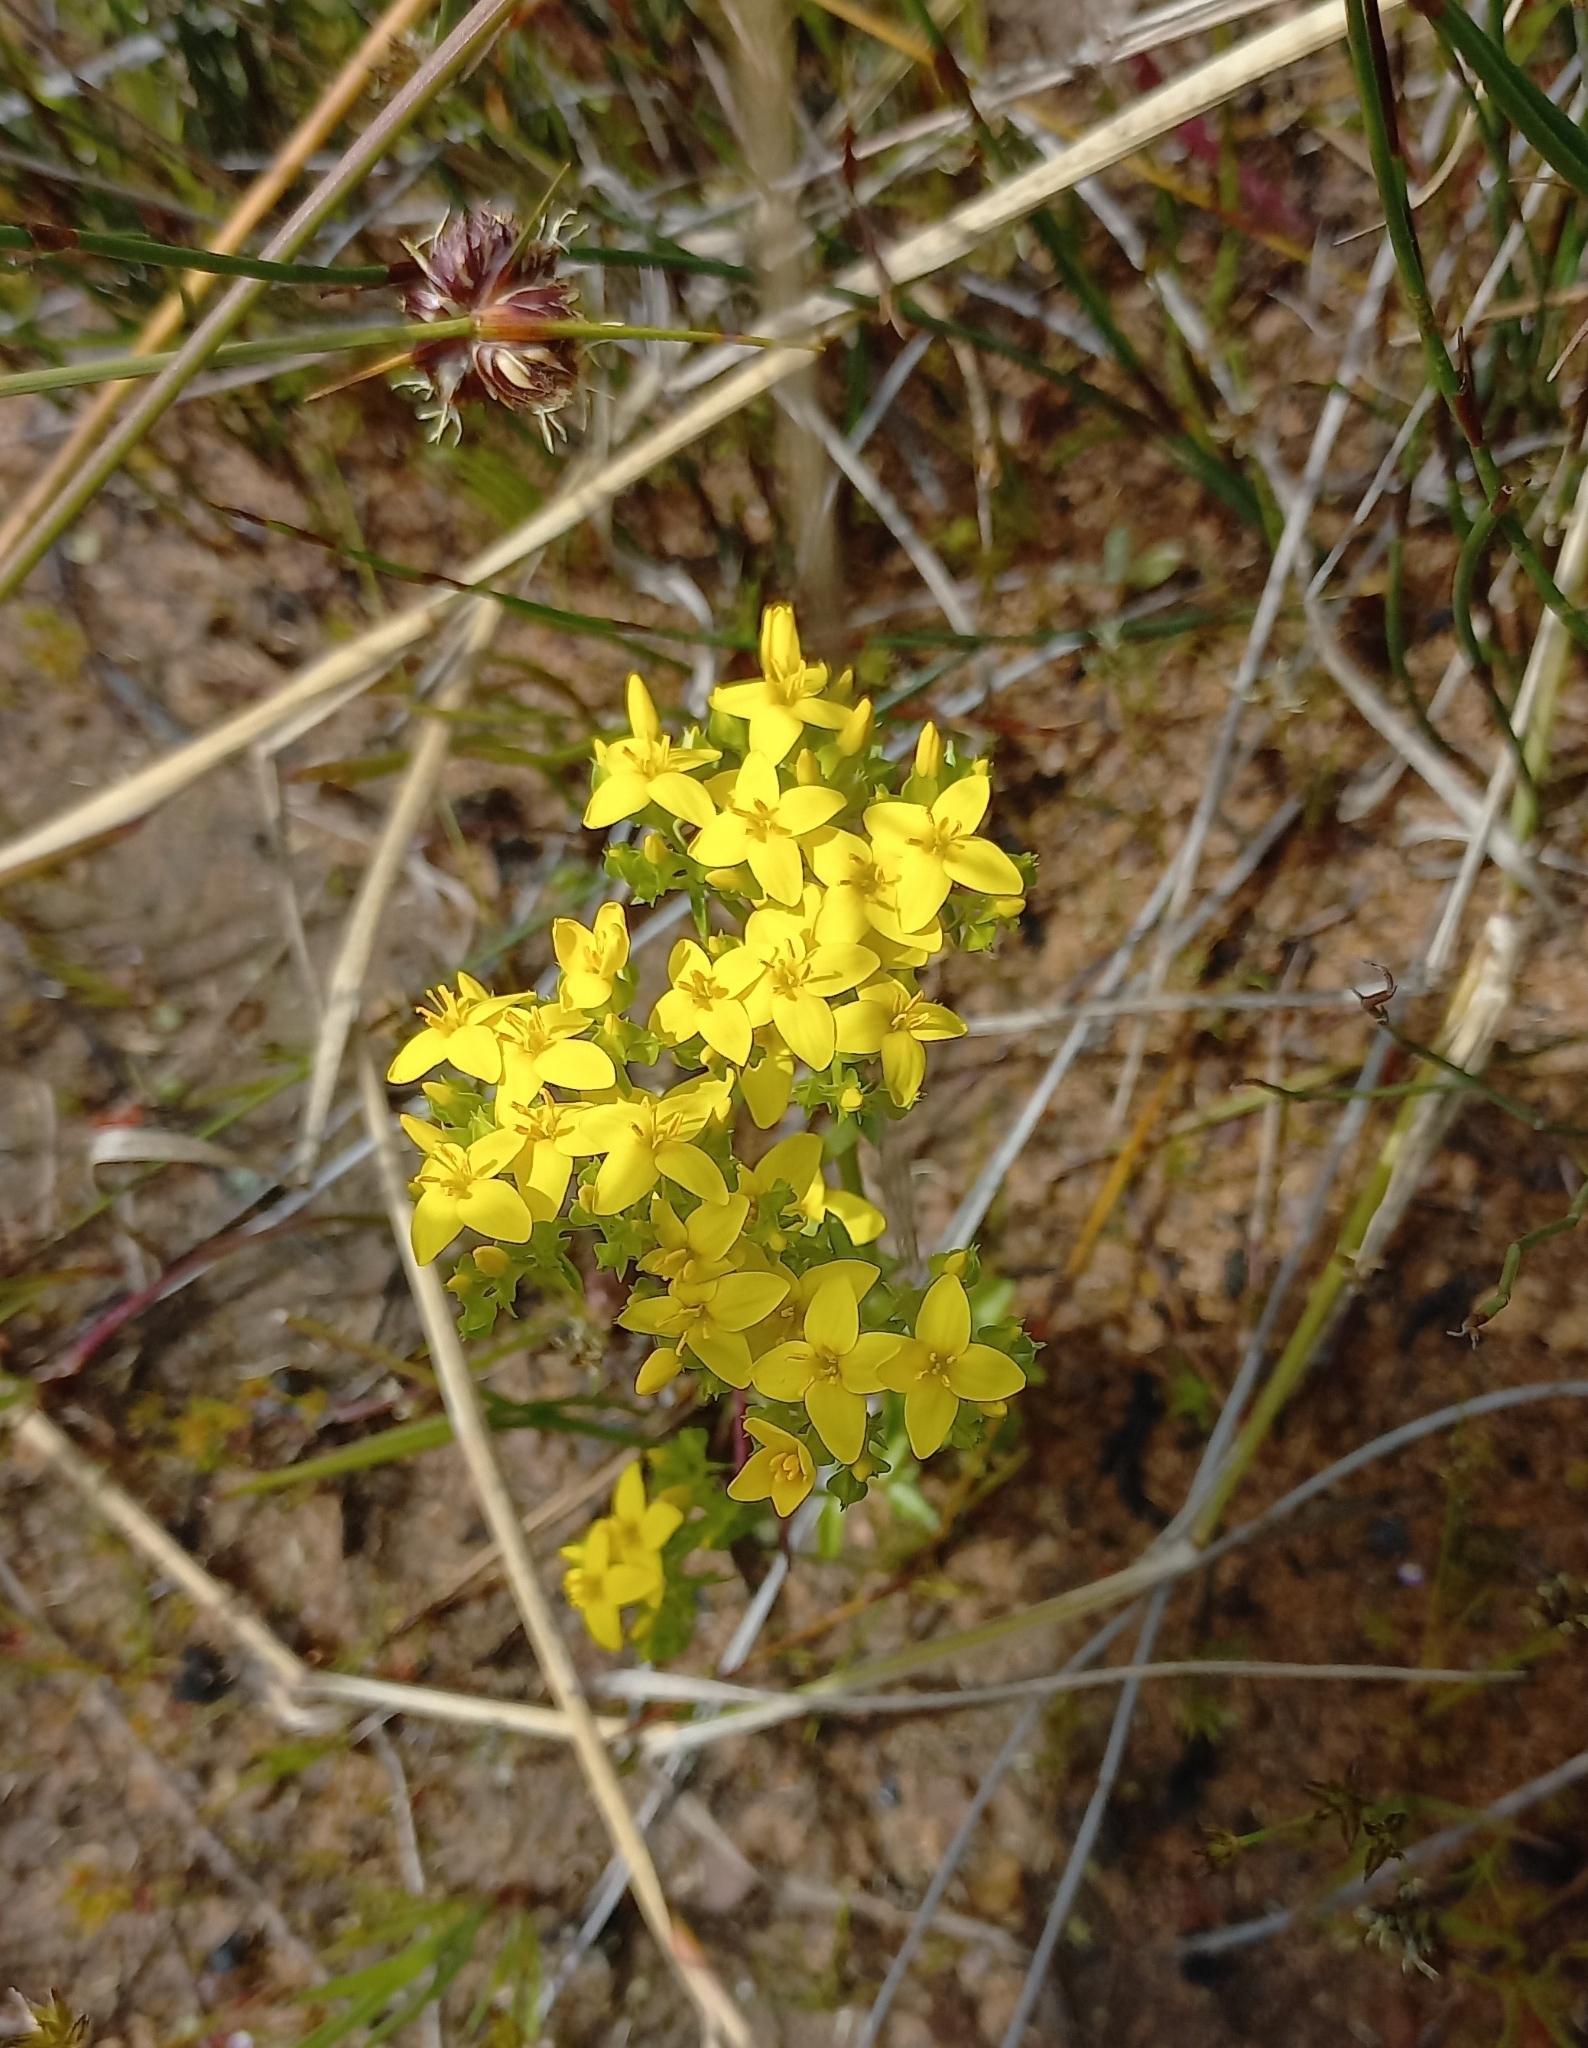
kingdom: Plantae
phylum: Tracheophyta
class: Magnoliopsida
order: Gentianales
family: Gentianaceae
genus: Sebaea
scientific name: Sebaea aurea
